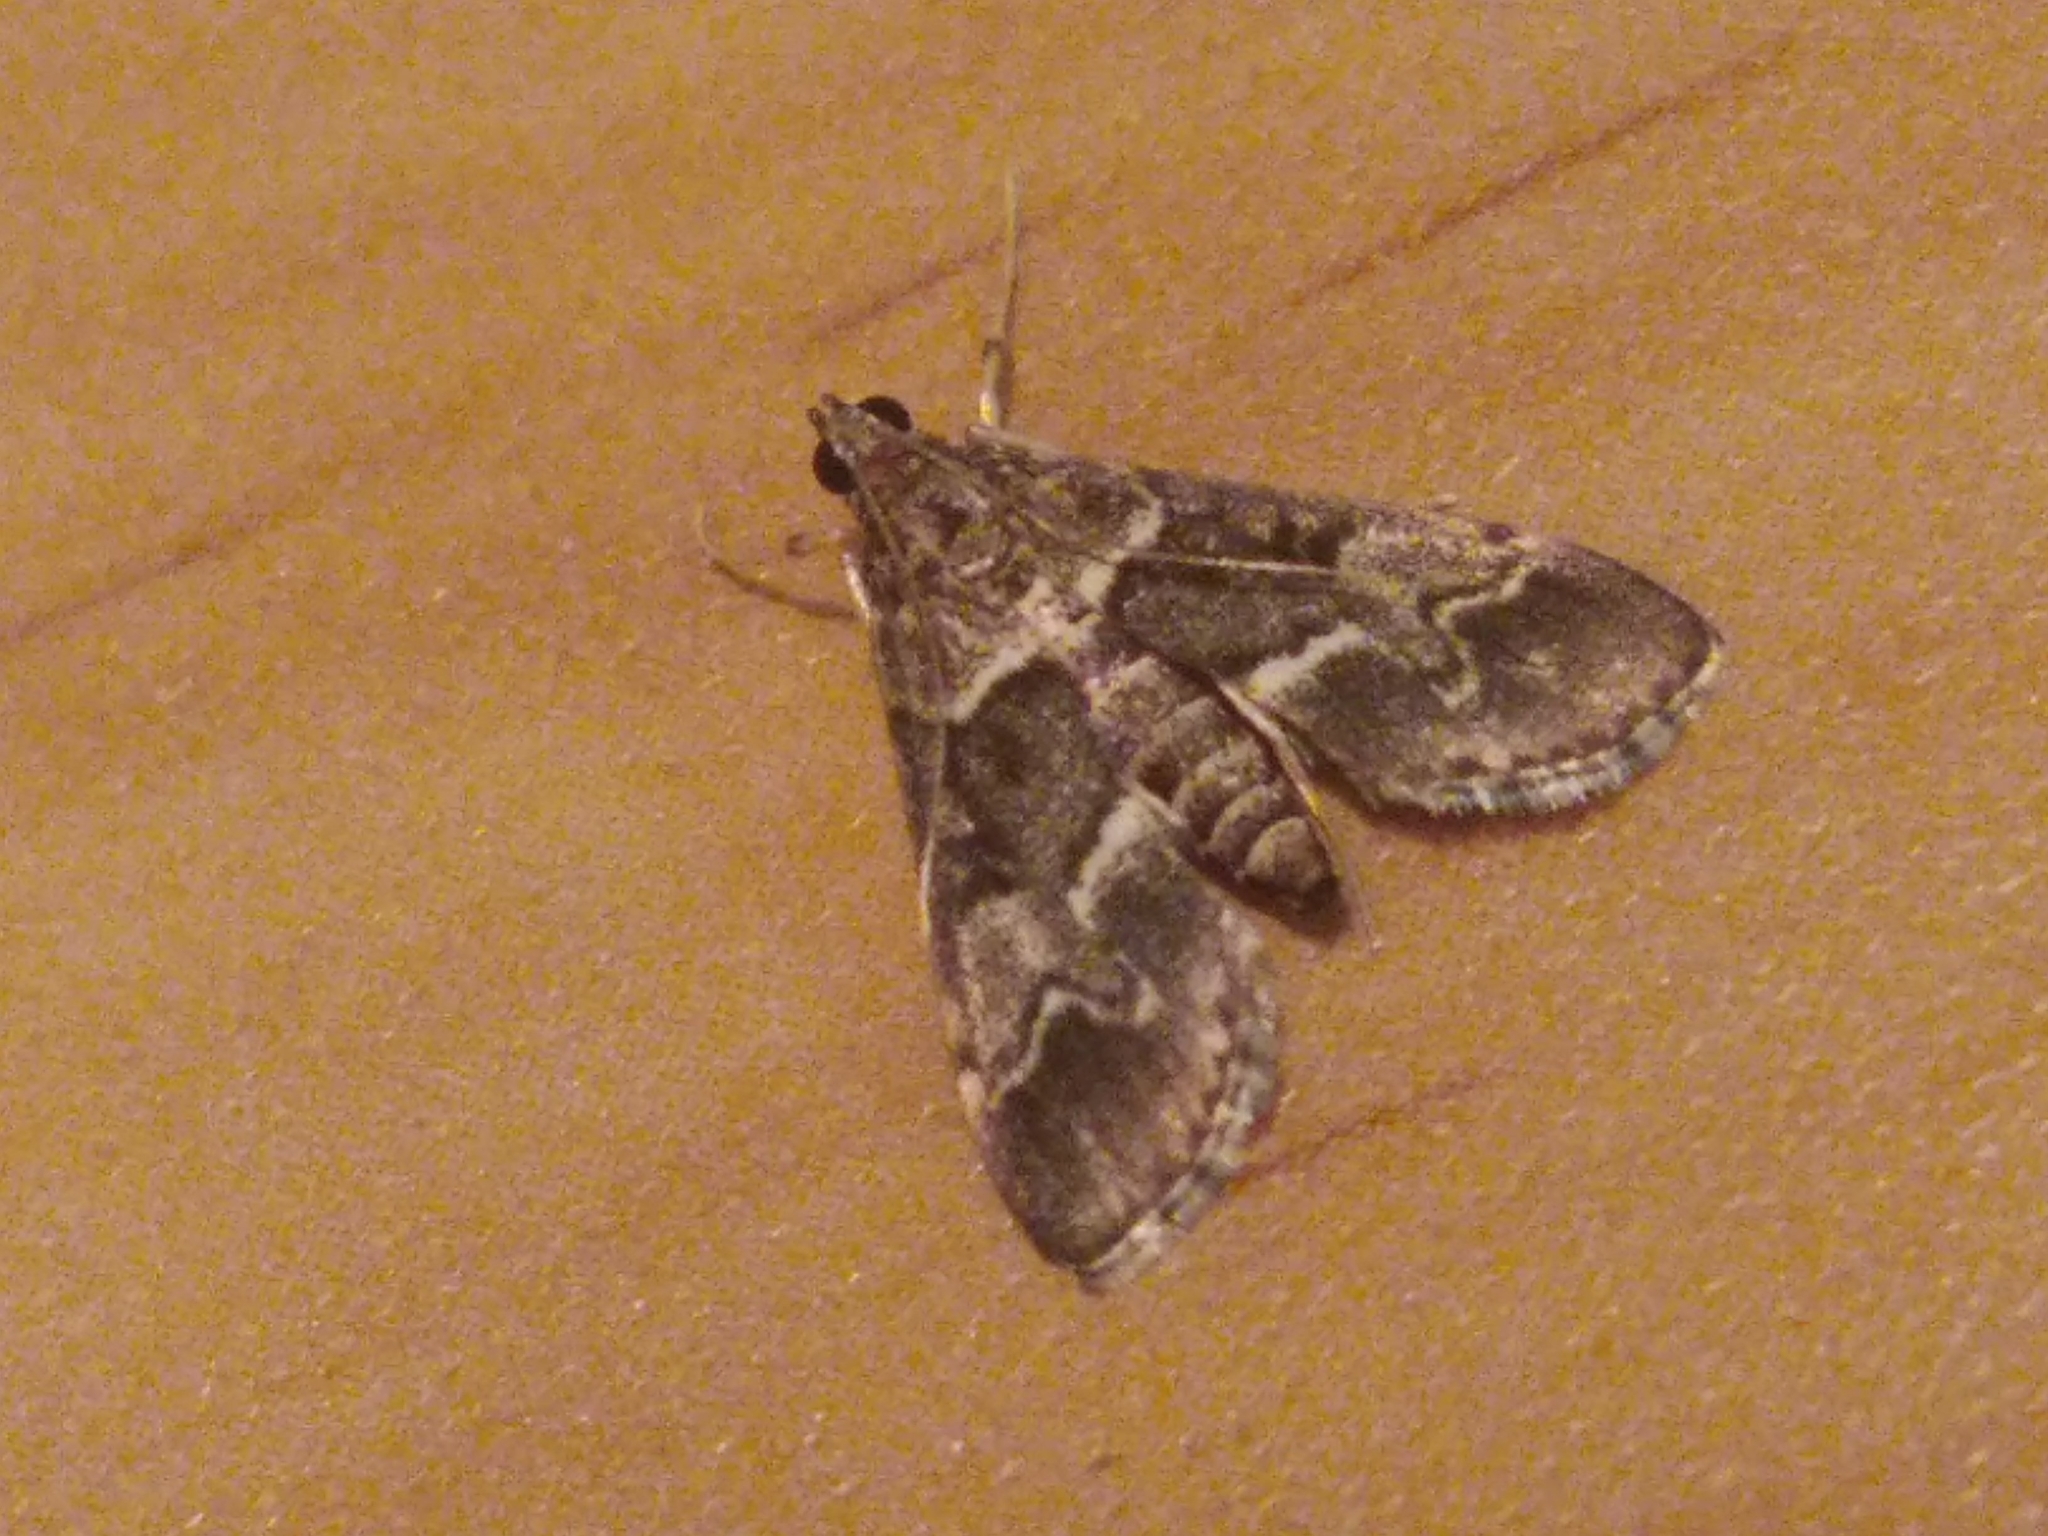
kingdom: Animalia
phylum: Arthropoda
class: Insecta
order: Lepidoptera
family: Crambidae
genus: Duponchelia
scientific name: Duponchelia fovealis
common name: Crambid moth
